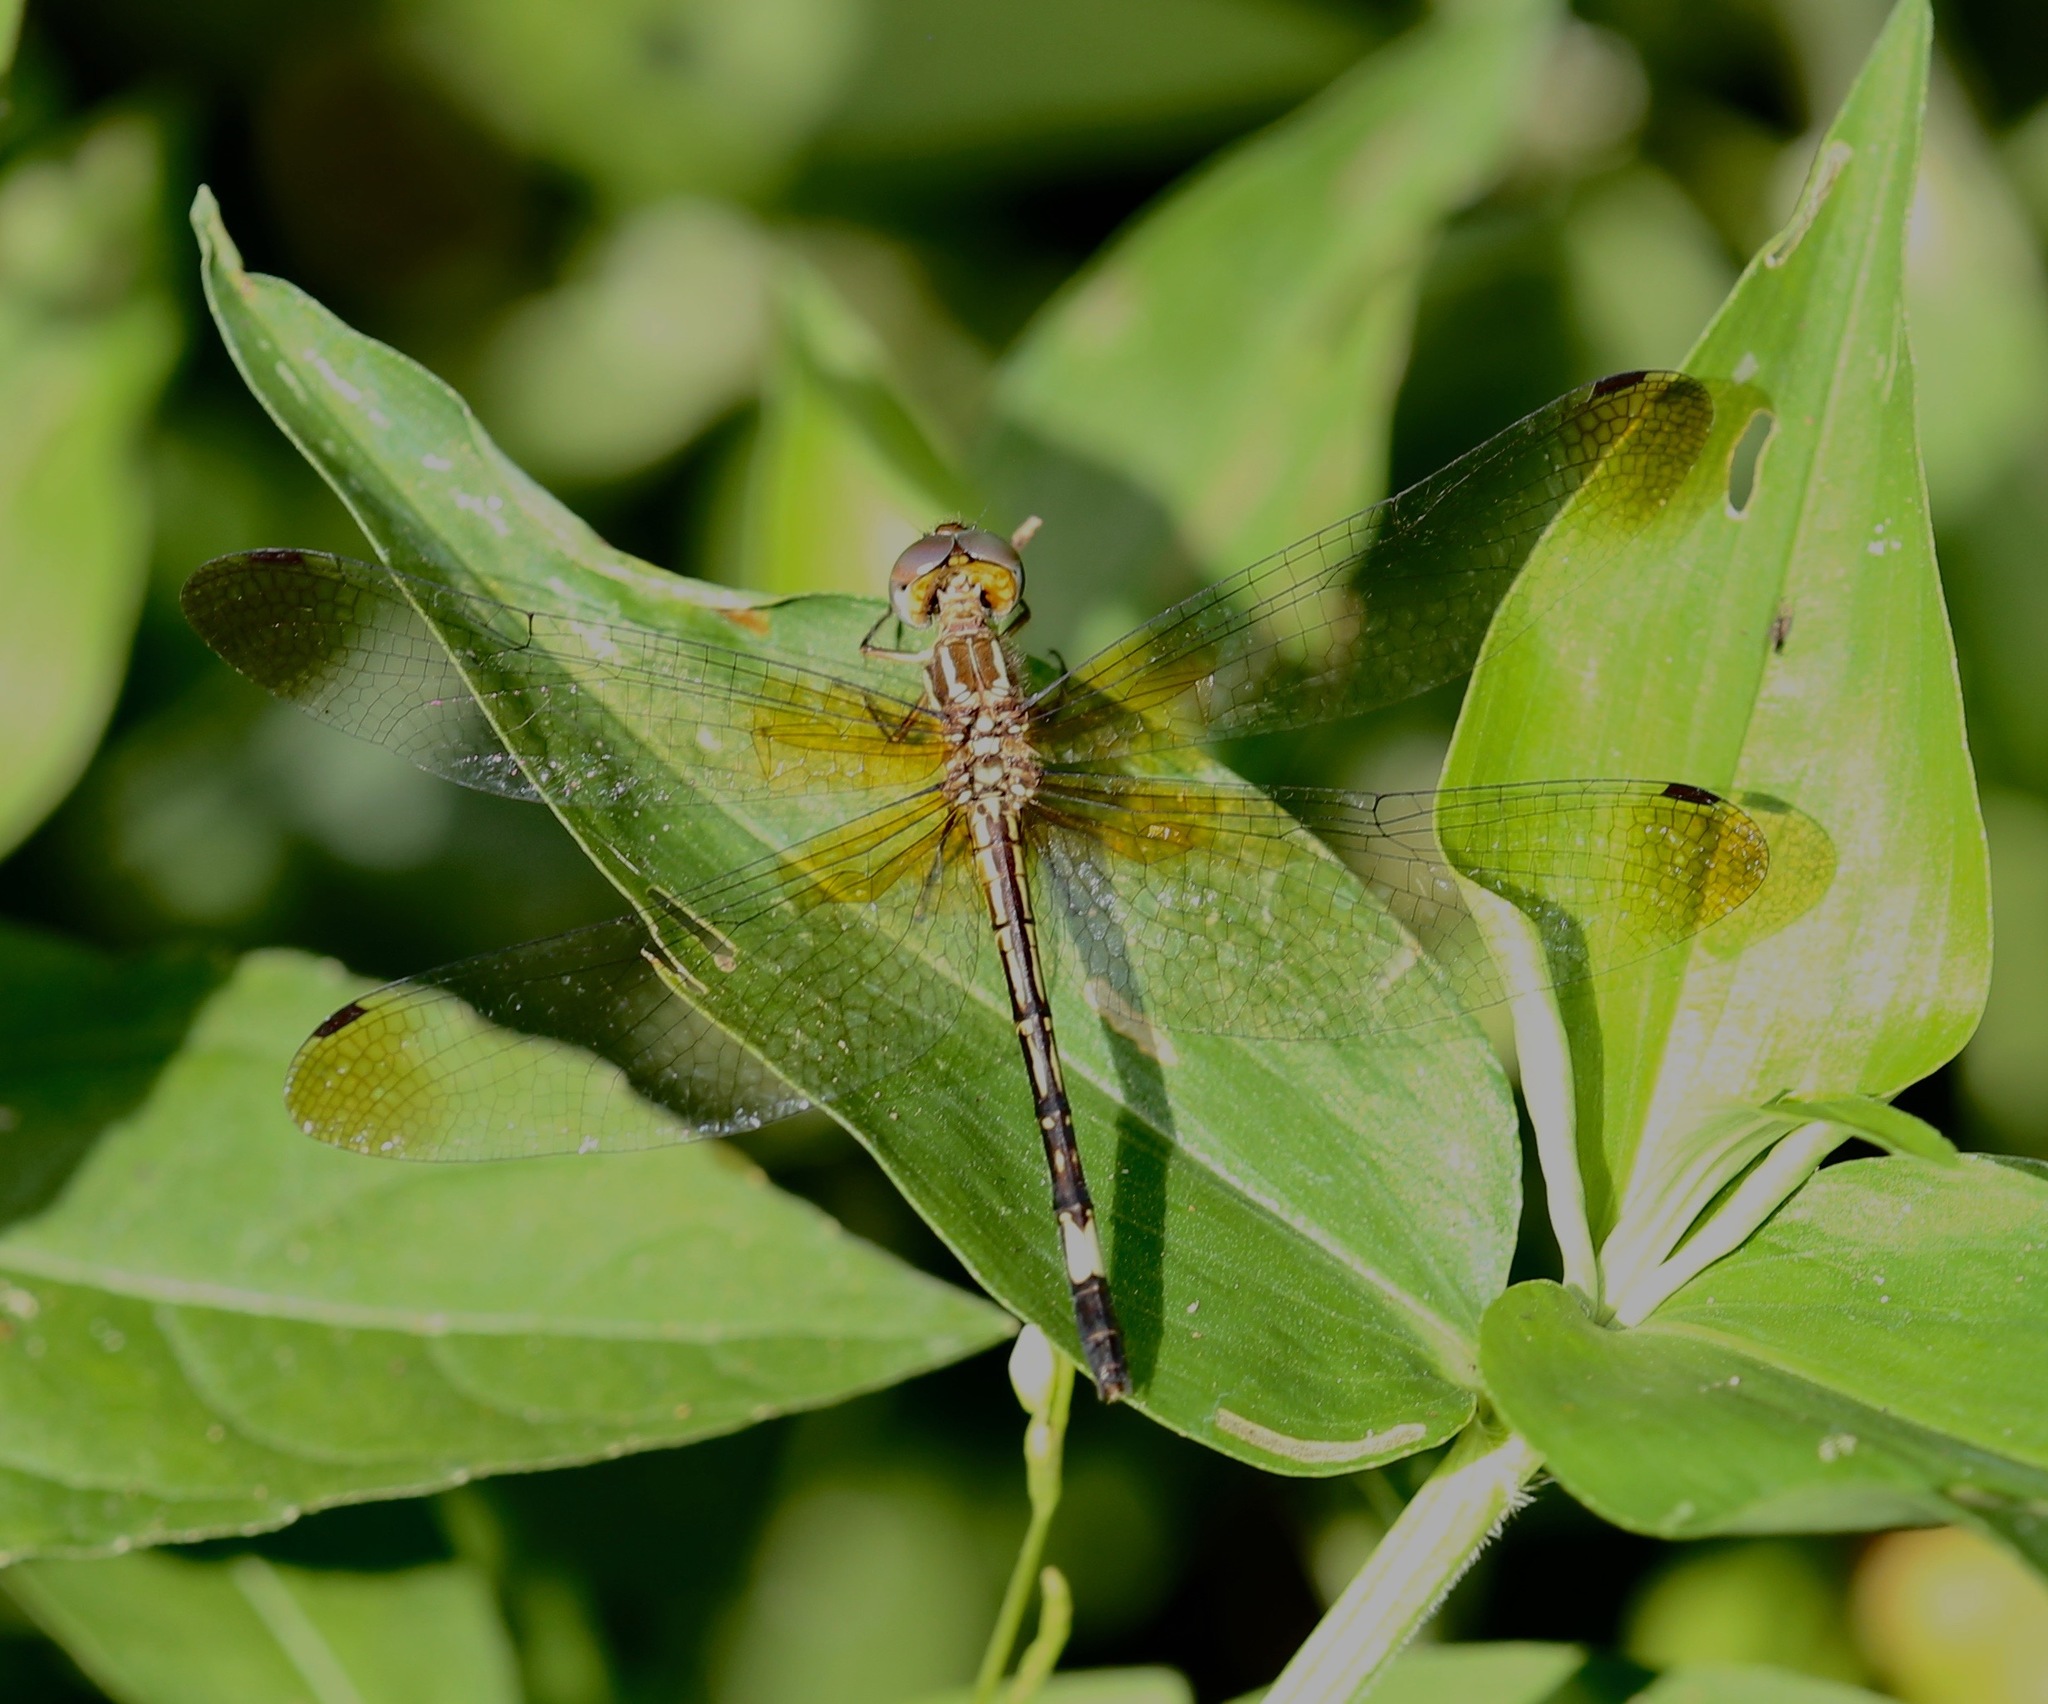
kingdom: Animalia
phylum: Arthropoda
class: Insecta
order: Odonata
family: Libellulidae
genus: Macrothemis
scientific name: Macrothemis ultima
